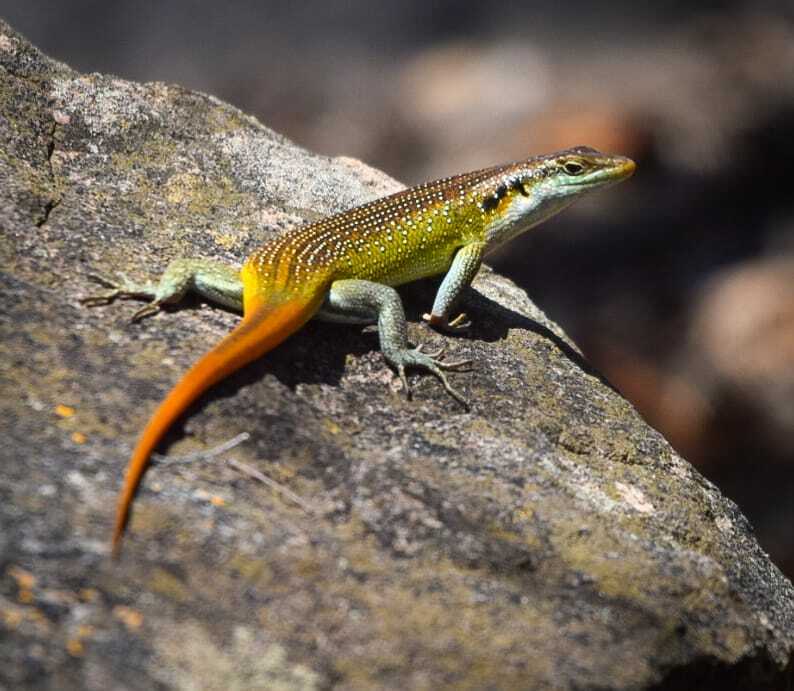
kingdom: Animalia
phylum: Chordata
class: Squamata
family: Scincidae
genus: Trachylepis
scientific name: Trachylepis margaritifera
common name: Rainbow skink
